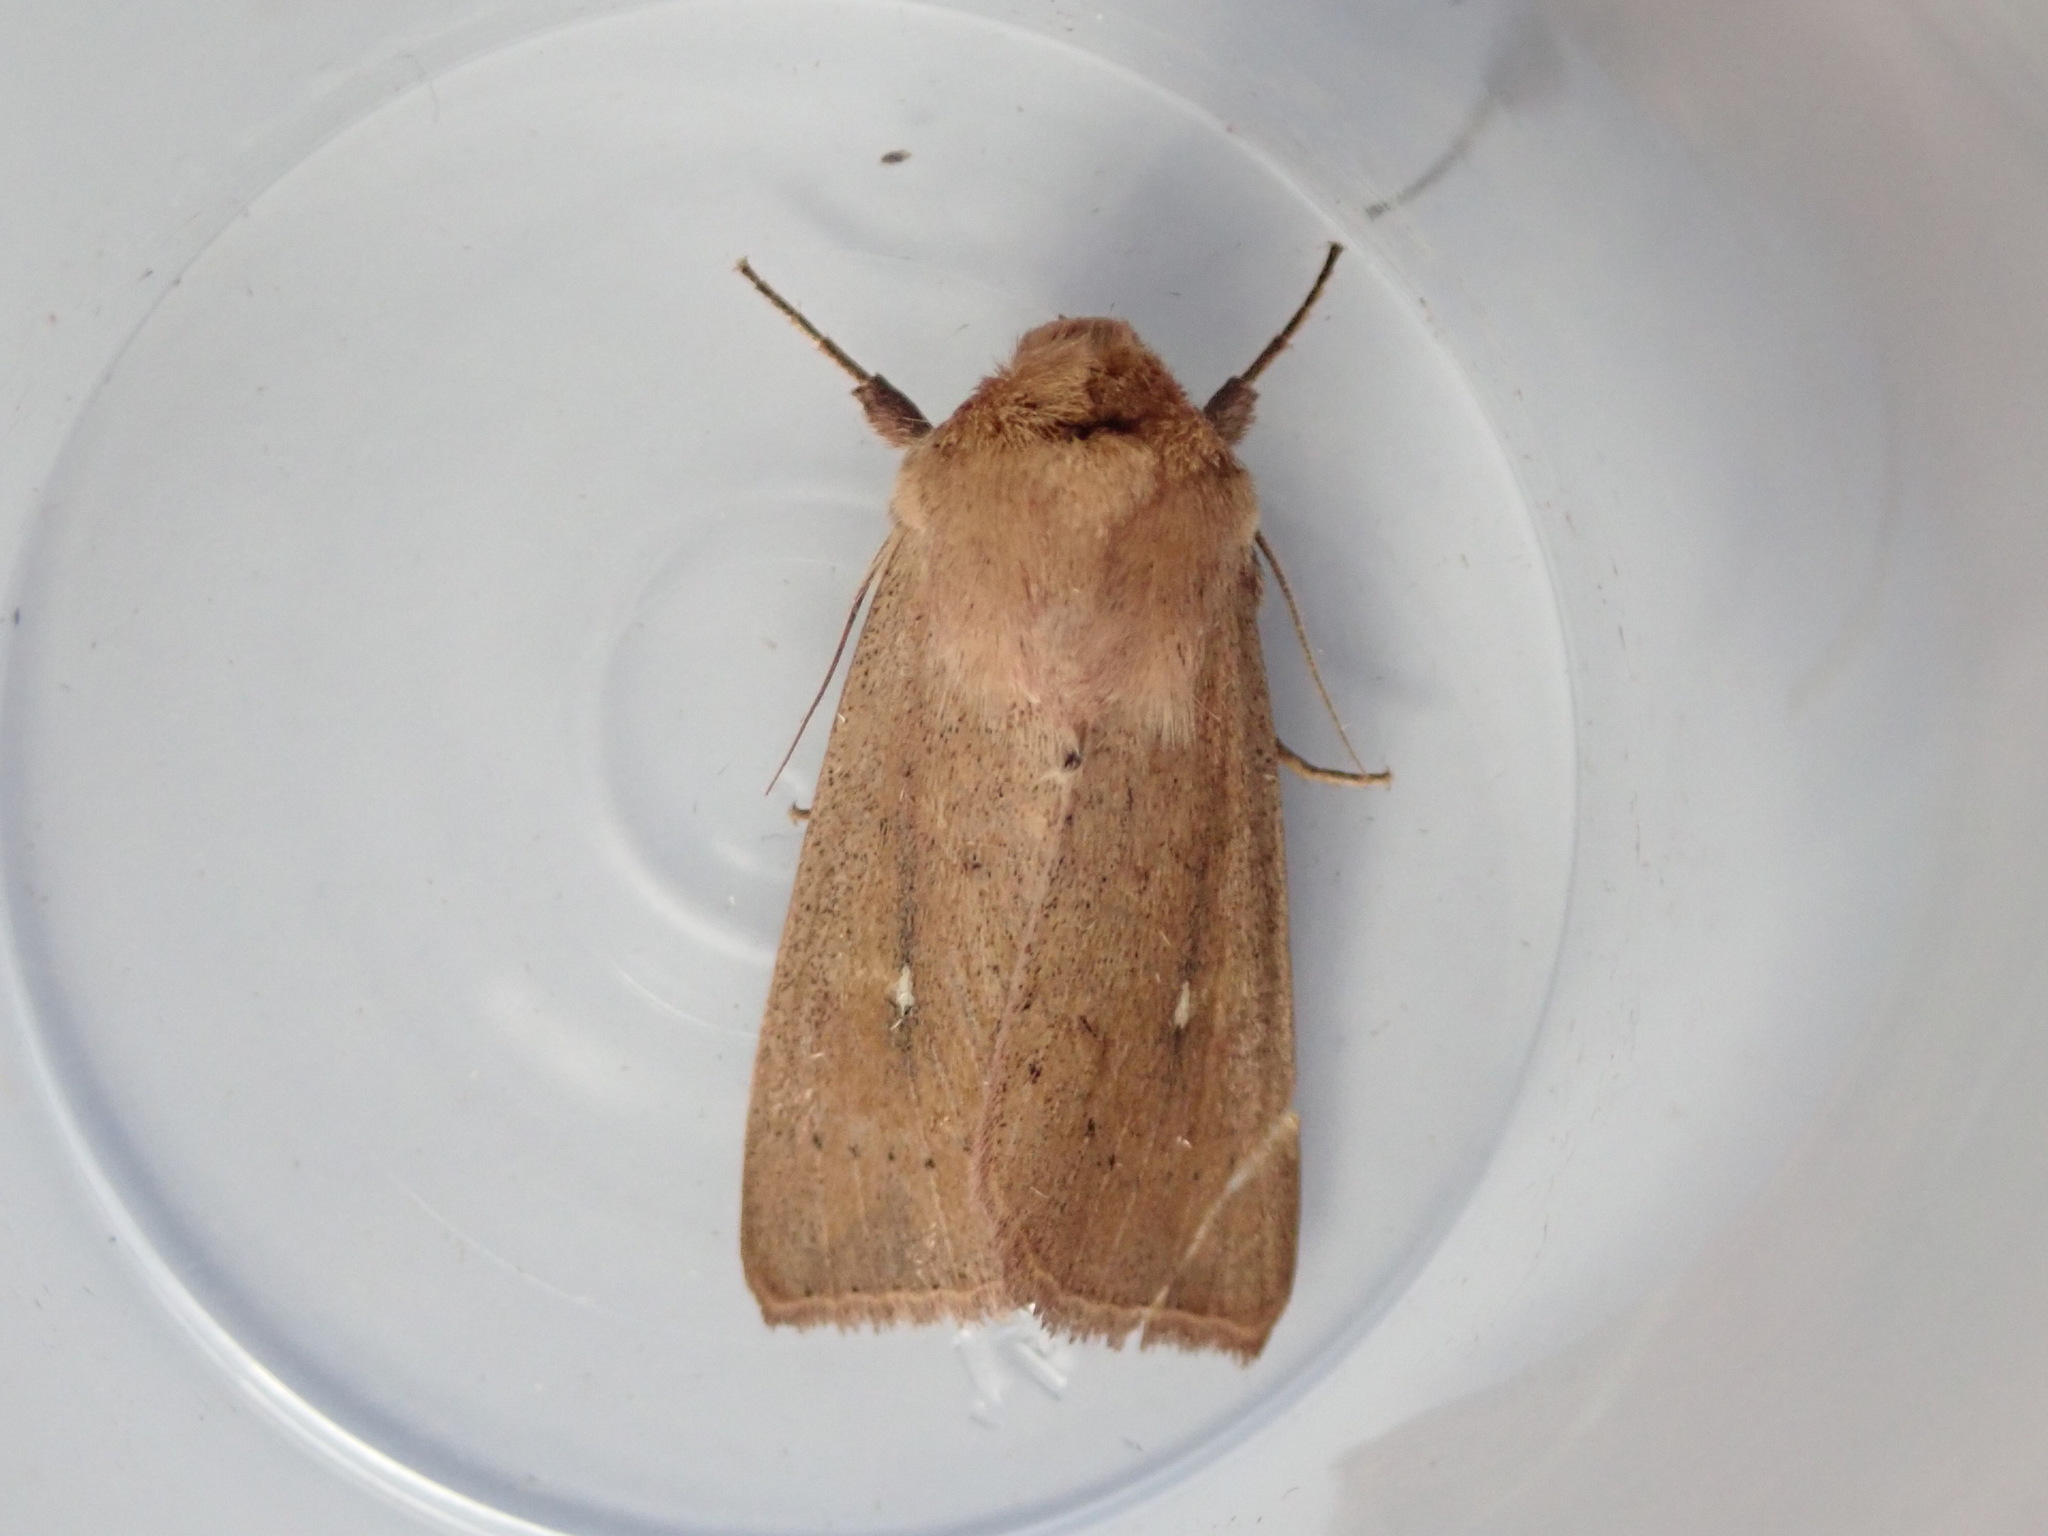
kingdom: Animalia
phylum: Arthropoda
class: Insecta
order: Lepidoptera
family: Noctuidae
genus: Mythimna
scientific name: Mythimna ferrago
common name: Clay
